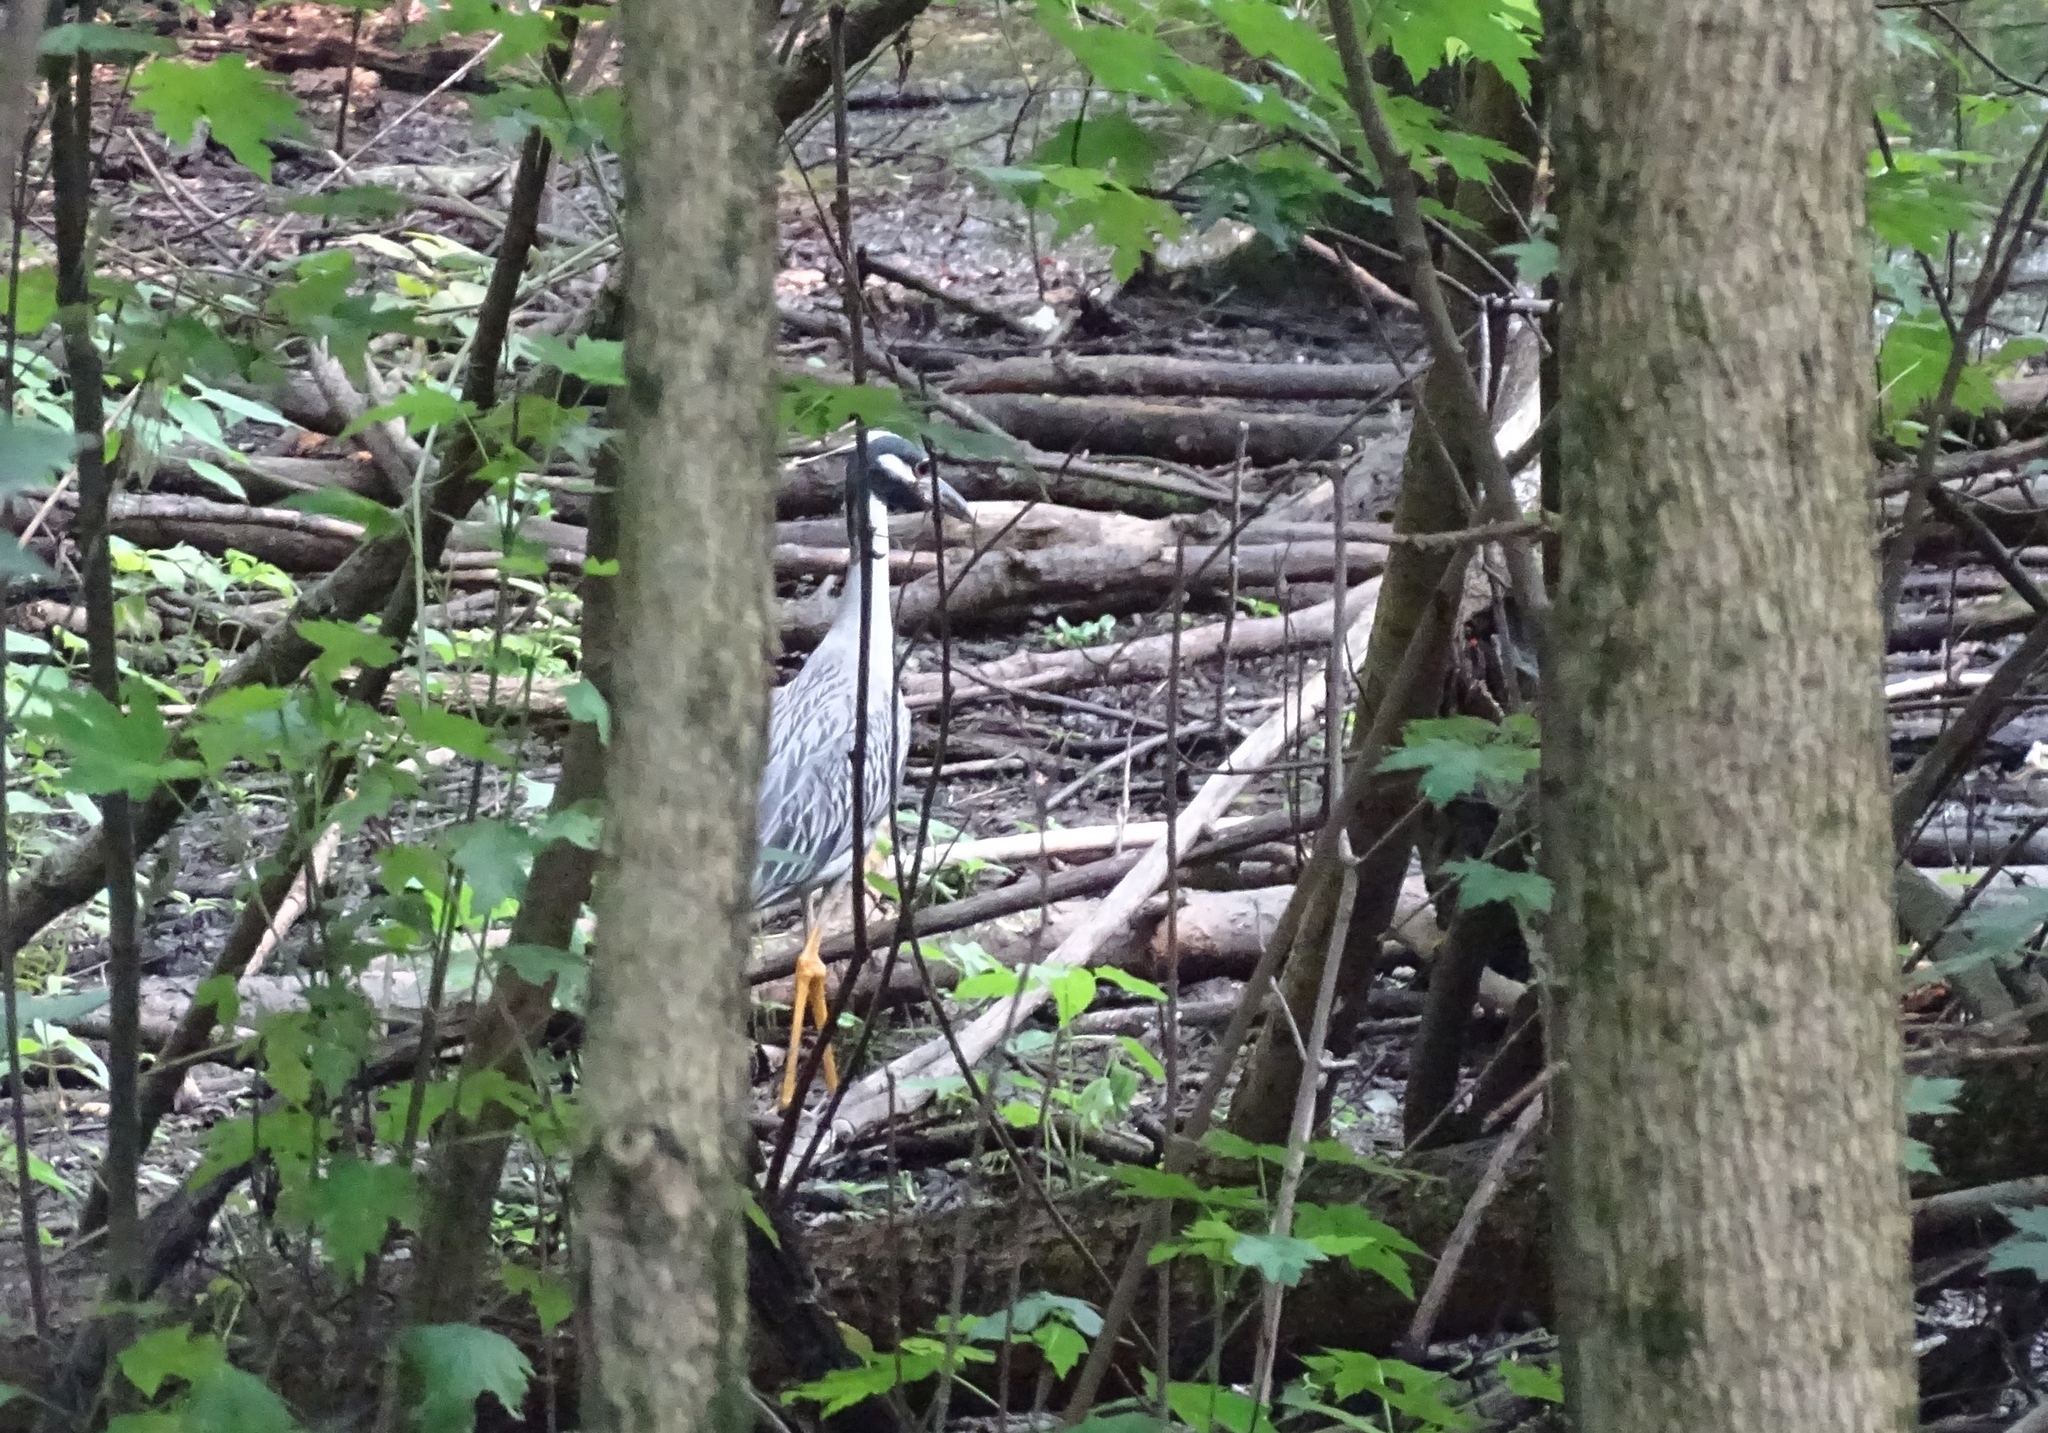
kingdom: Animalia
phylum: Chordata
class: Aves
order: Pelecaniformes
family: Ardeidae
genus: Nyctanassa
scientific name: Nyctanassa violacea
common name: Yellow-crowned night heron
